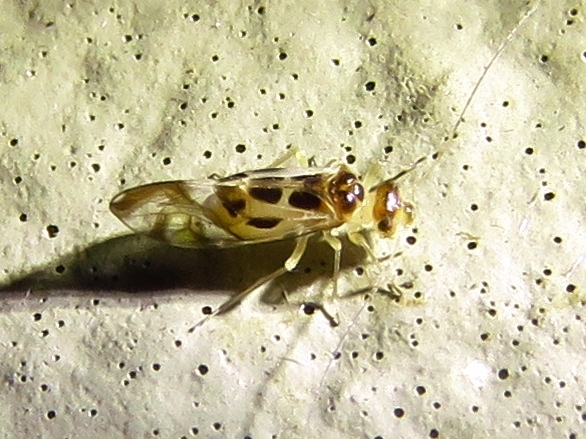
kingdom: Animalia
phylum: Arthropoda
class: Insecta
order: Psocodea
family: Stenopsocidae
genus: Graphopsocus
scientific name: Graphopsocus cruciatus
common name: Lizard bark louse
